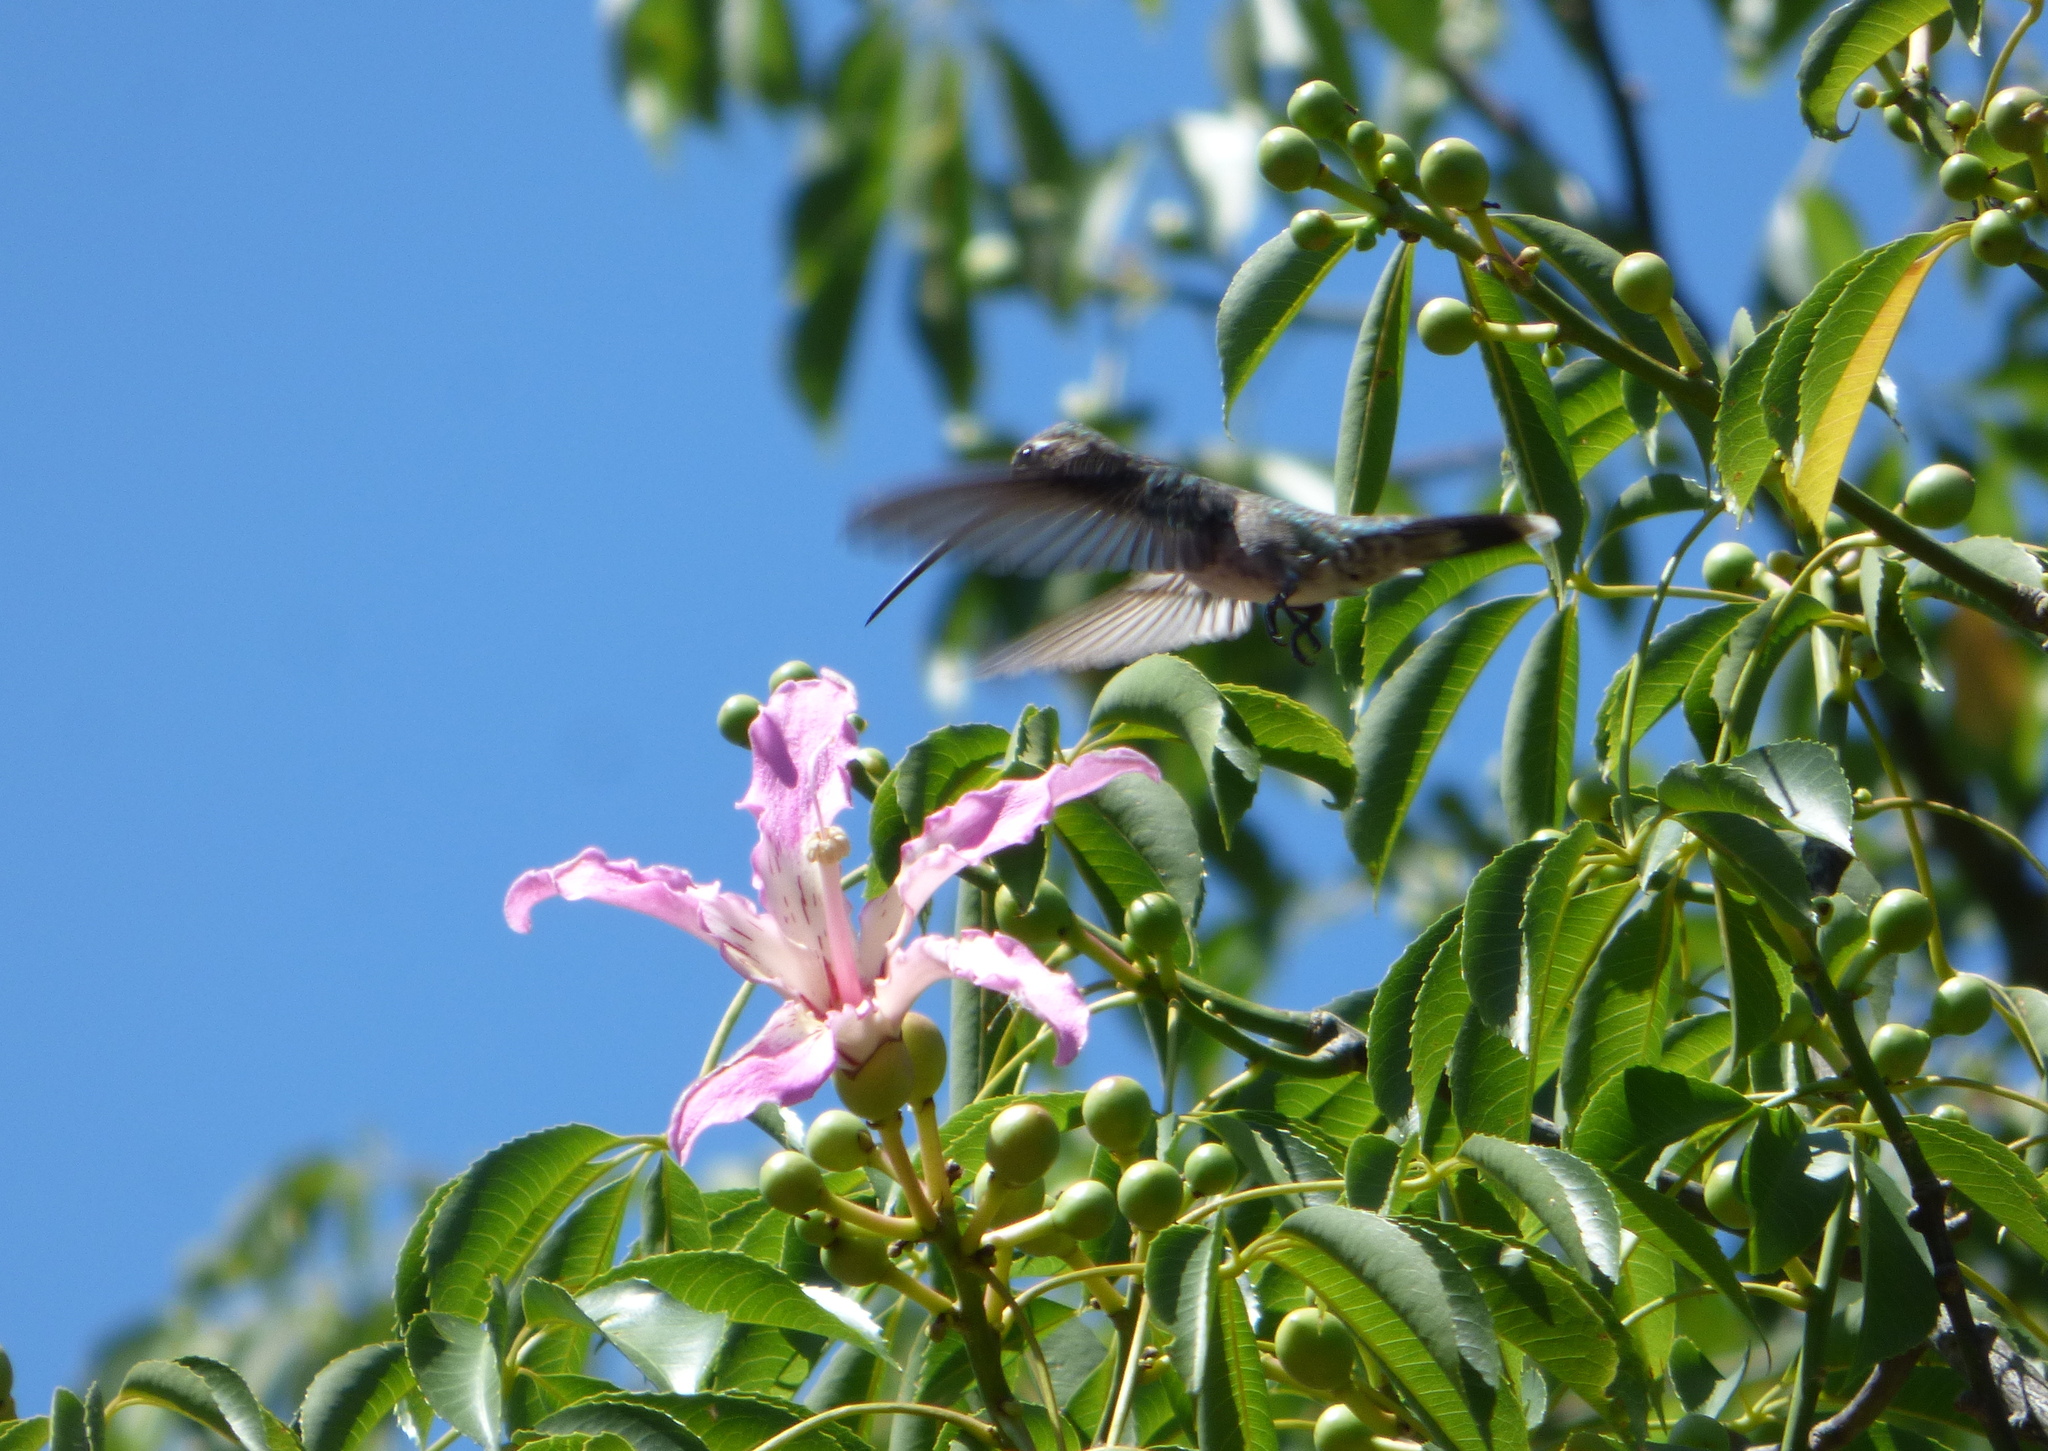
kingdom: Animalia
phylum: Chordata
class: Aves
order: Apodiformes
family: Trochilidae
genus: Heliomaster
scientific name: Heliomaster furcifer
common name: Blue-tufted starthroat
